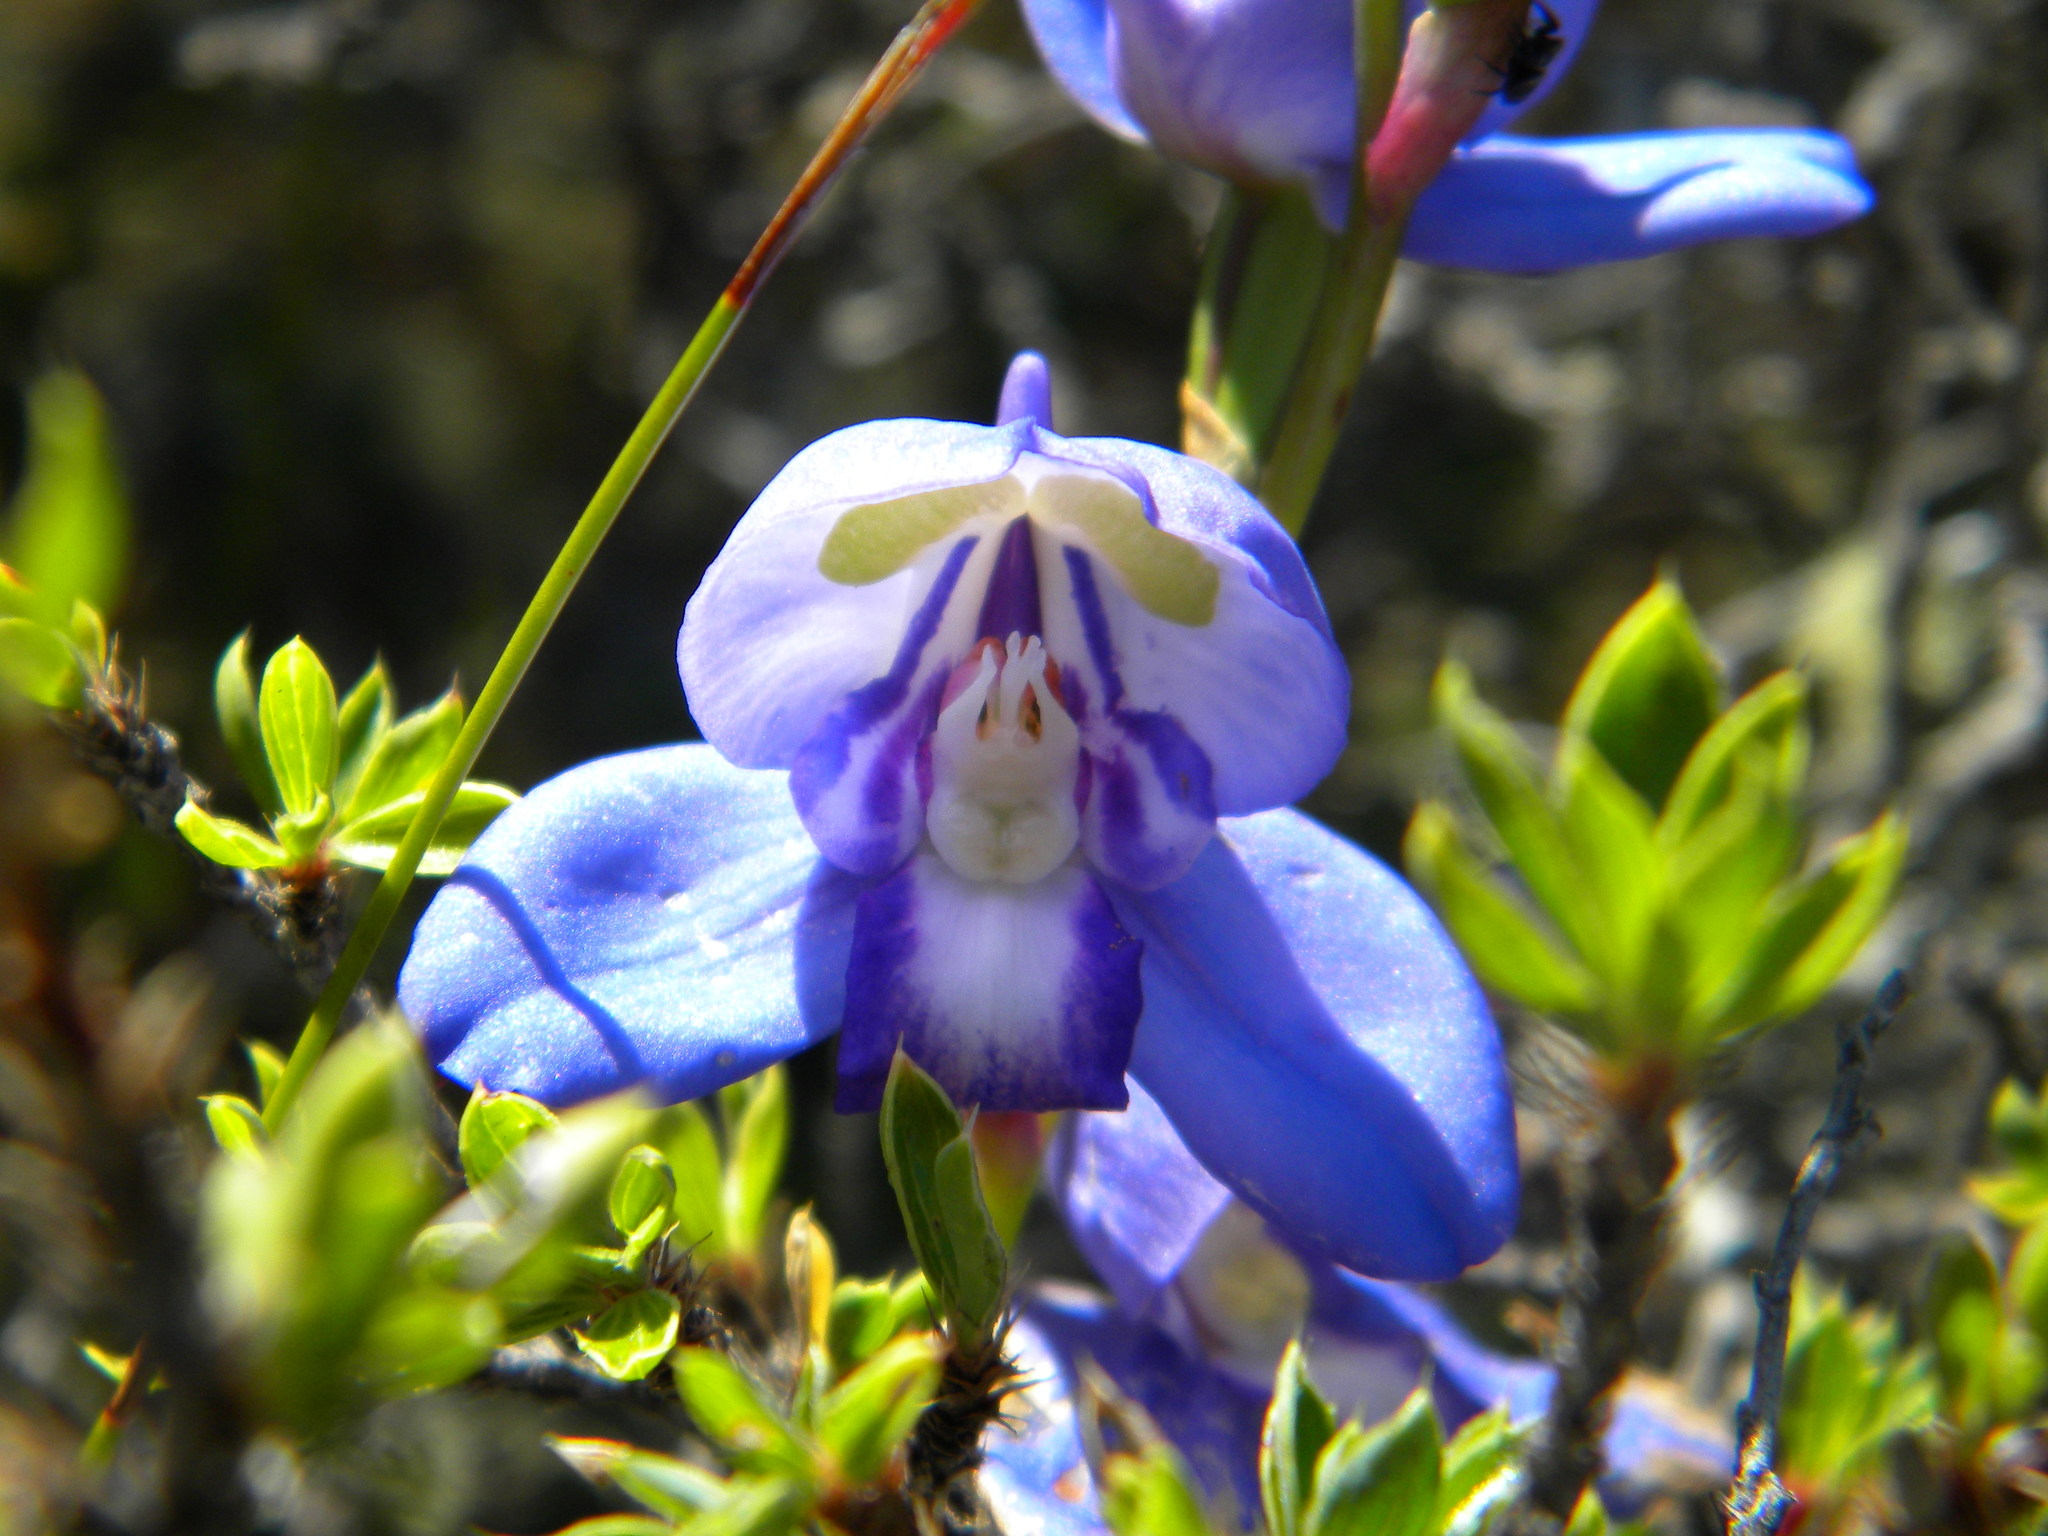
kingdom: Plantae
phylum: Tracheophyta
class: Liliopsida
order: Asparagales
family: Orchidaceae
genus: Disa
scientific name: Disa graminifolia
